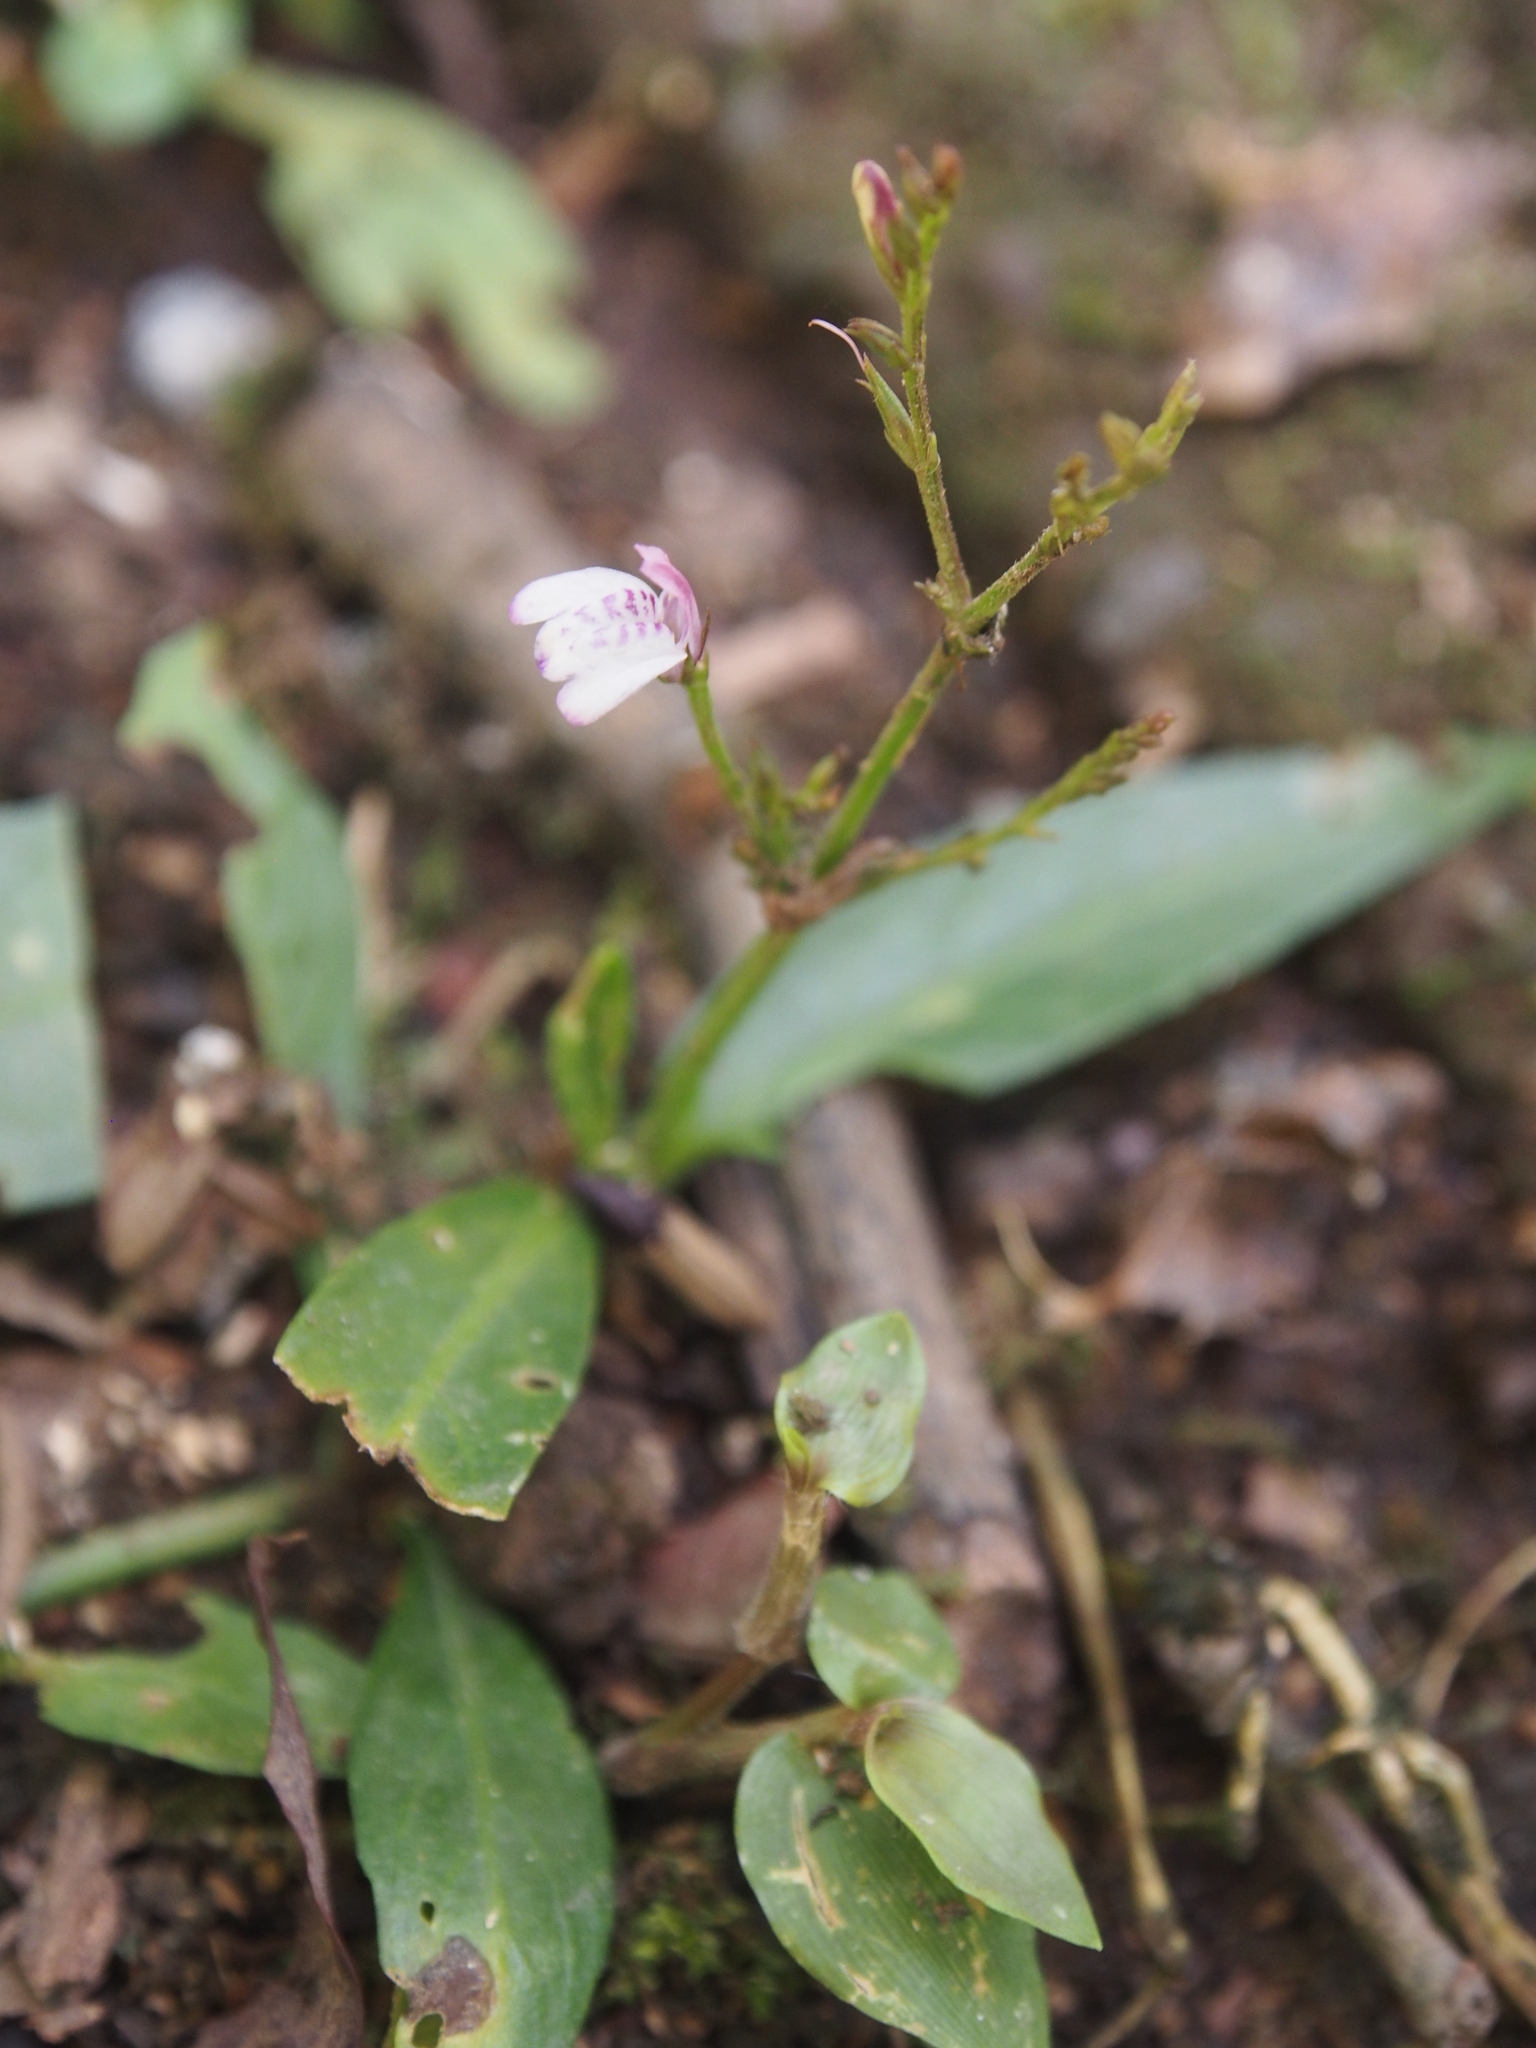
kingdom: Plantae
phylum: Tracheophyta
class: Magnoliopsida
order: Lamiales
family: Acanthaceae
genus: Justicia
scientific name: Justicia comata
